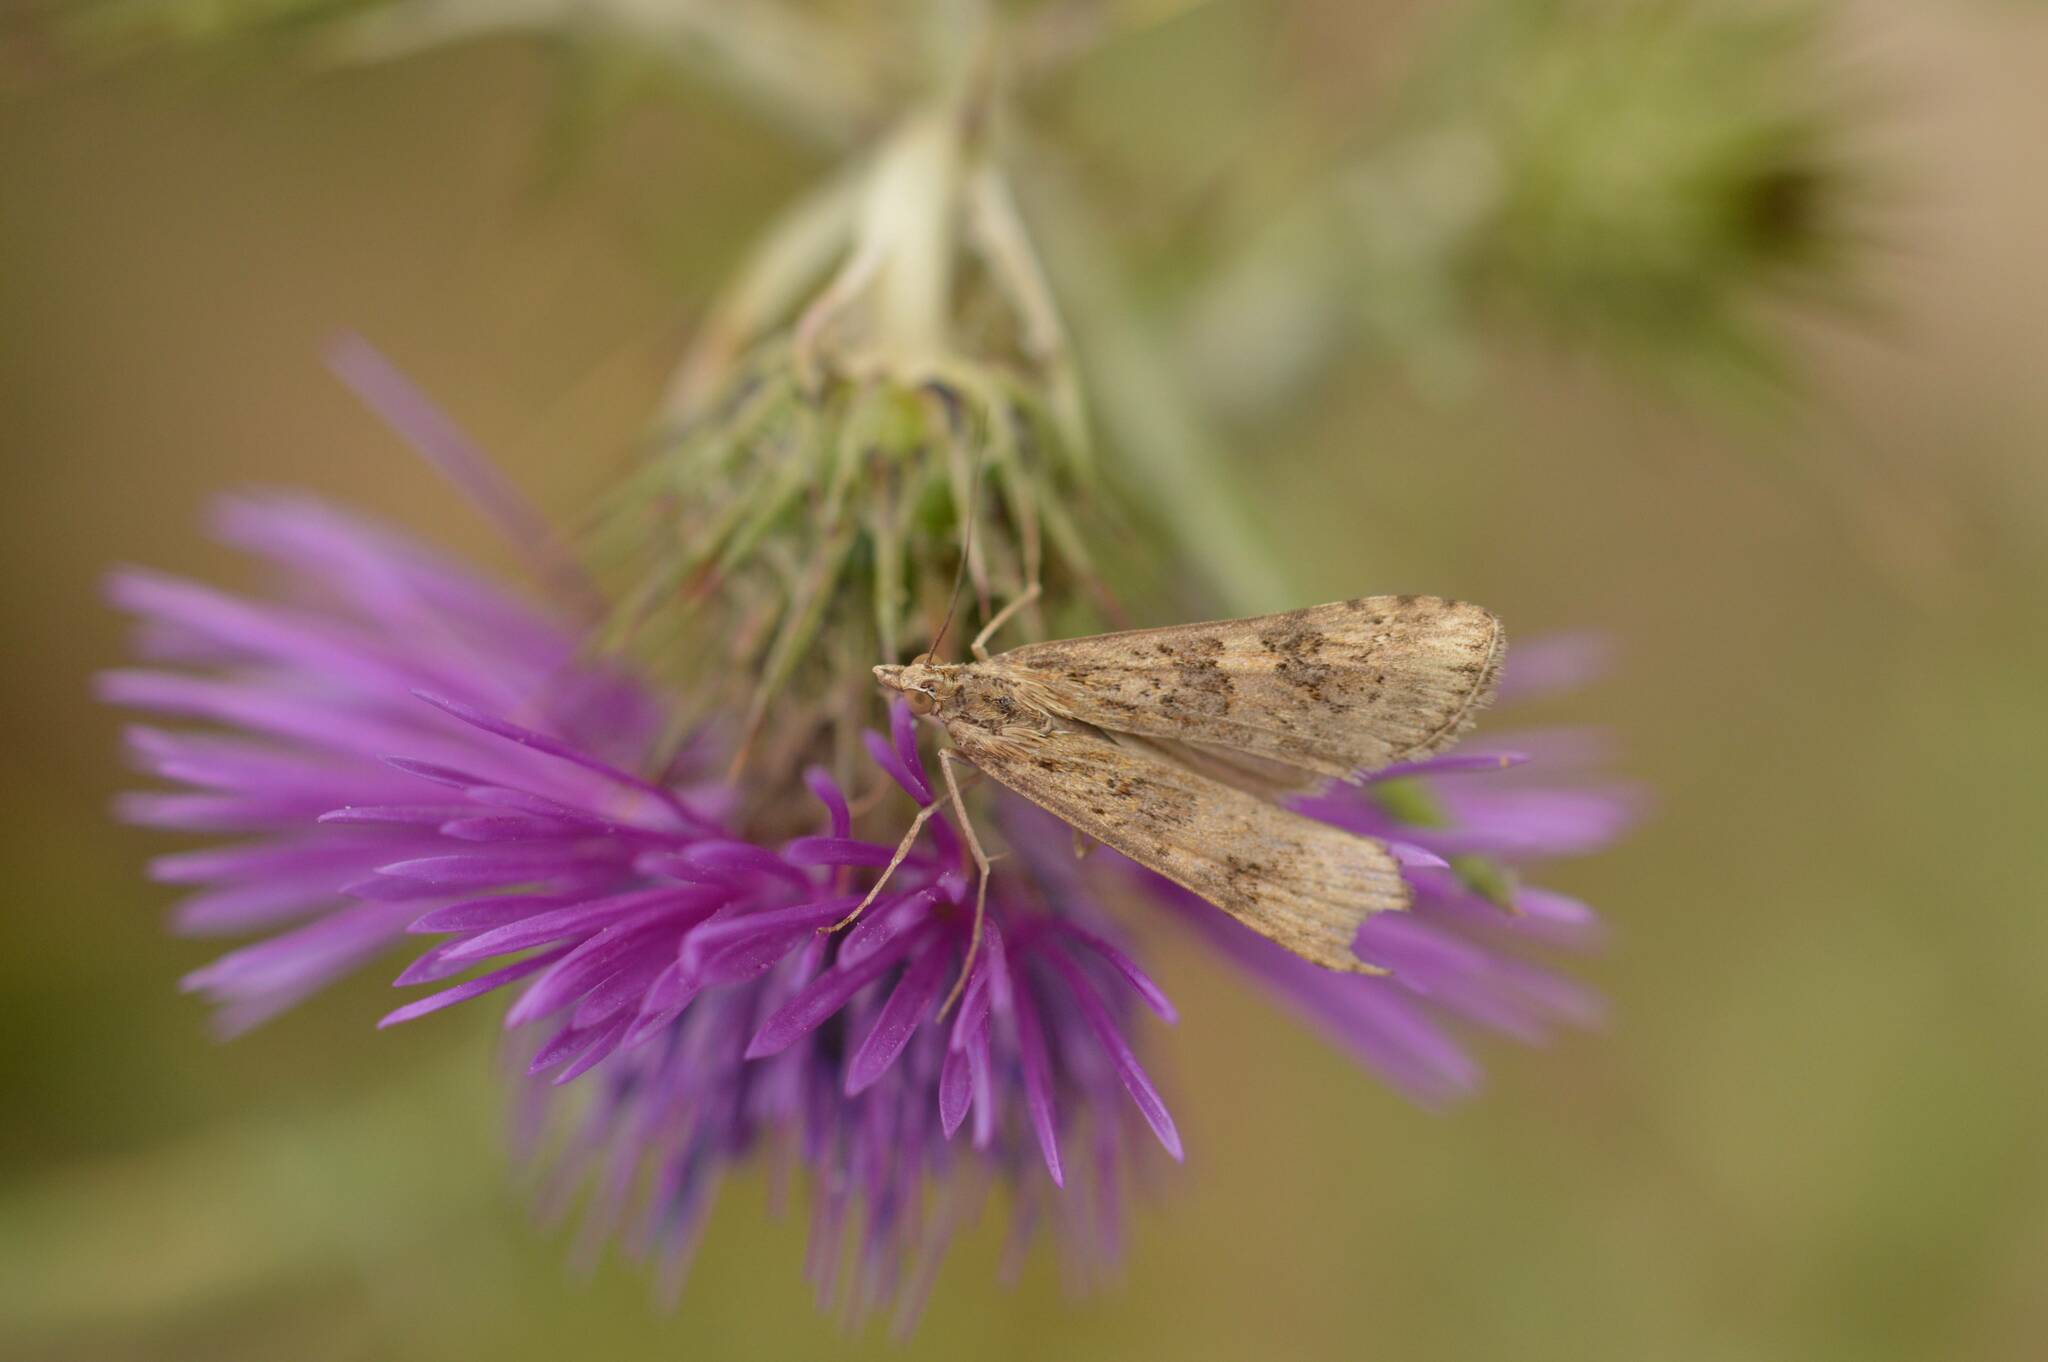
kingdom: Animalia
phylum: Arthropoda
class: Insecta
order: Lepidoptera
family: Crambidae
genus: Nomophila
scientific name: Nomophila noctuella
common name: Rush veneer
